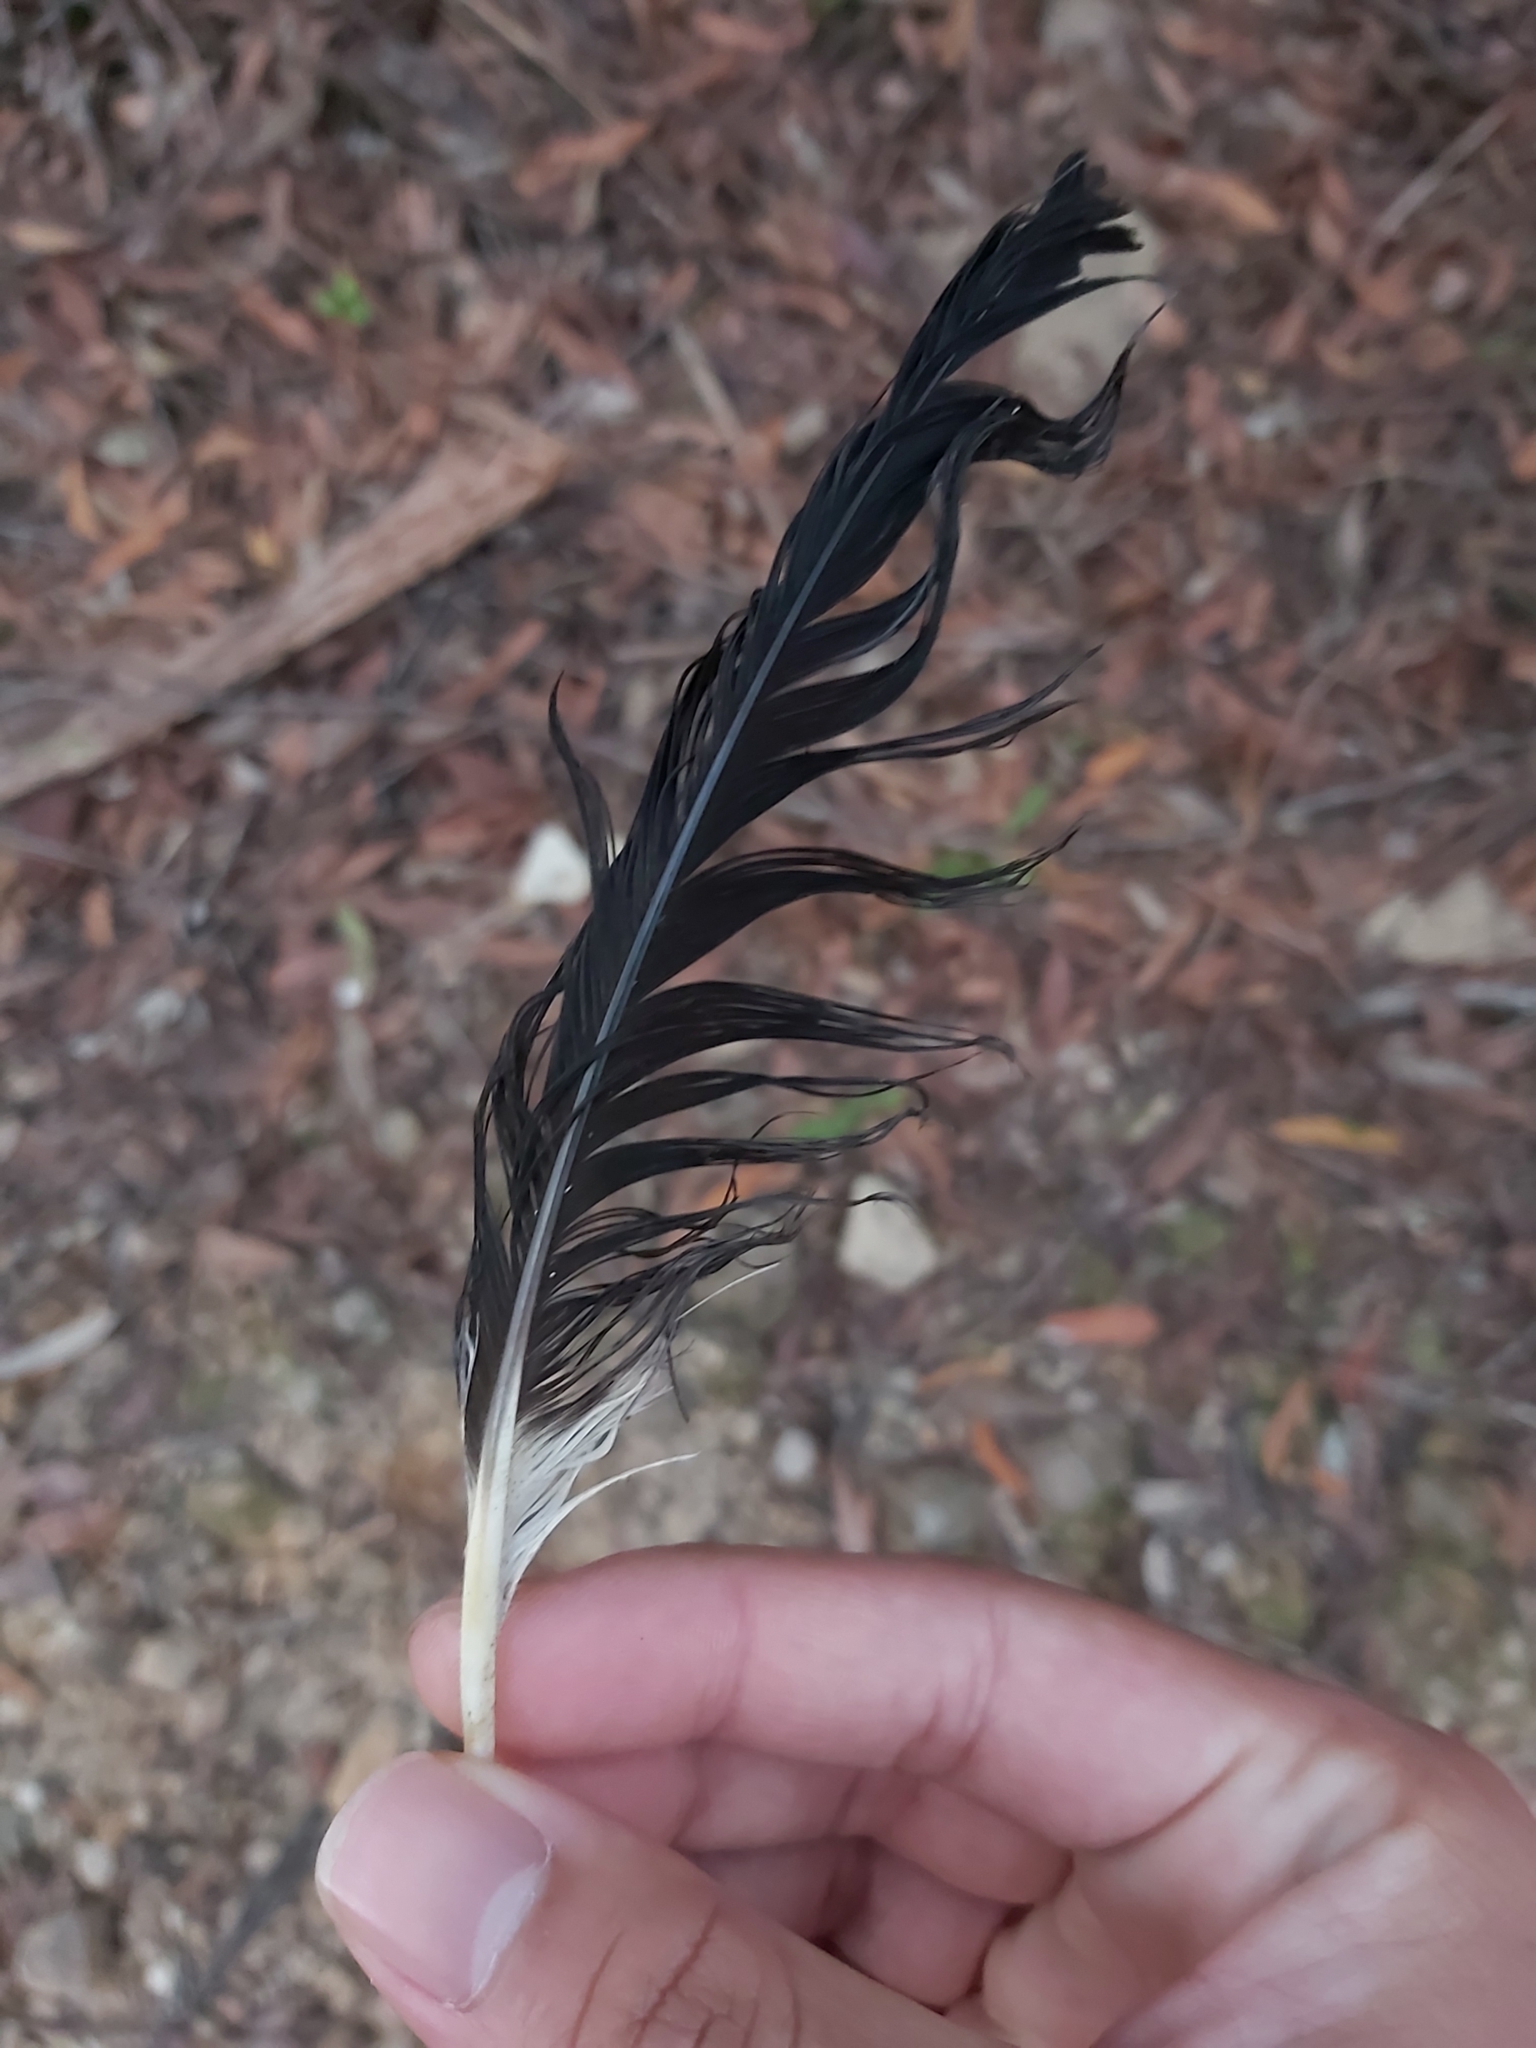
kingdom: Animalia
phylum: Chordata
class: Aves
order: Passeriformes
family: Cracticidae
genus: Strepera
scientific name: Strepera graculina
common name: Pied currawong
